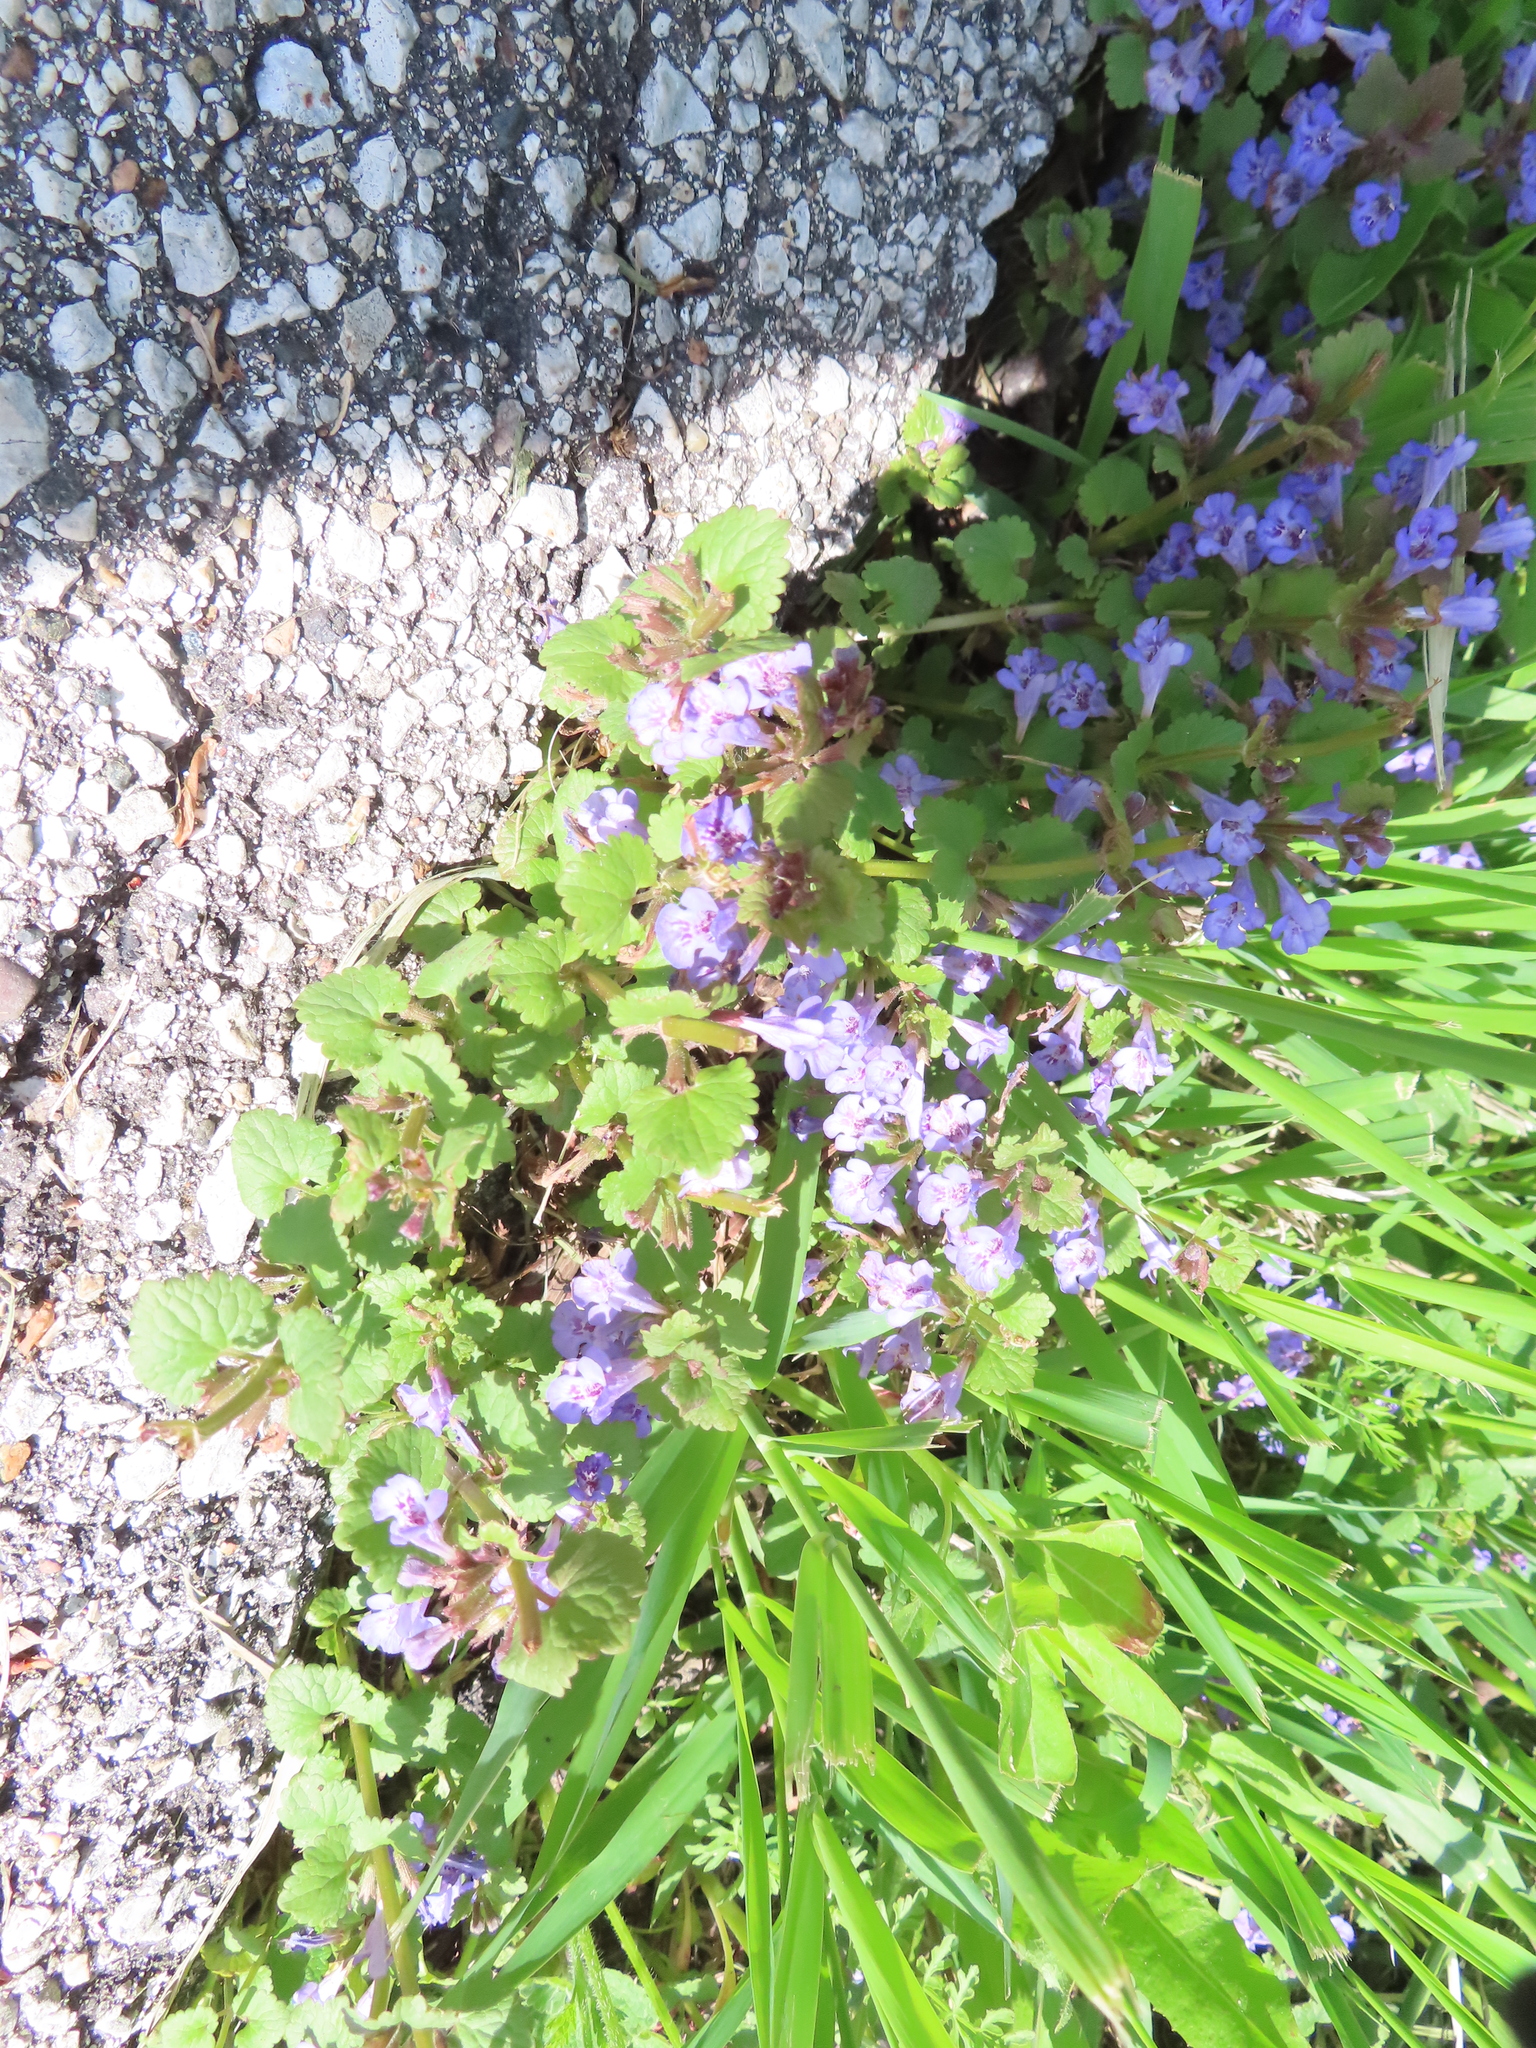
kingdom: Plantae
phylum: Tracheophyta
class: Magnoliopsida
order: Lamiales
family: Lamiaceae
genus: Glechoma
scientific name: Glechoma hederacea
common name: Ground ivy
